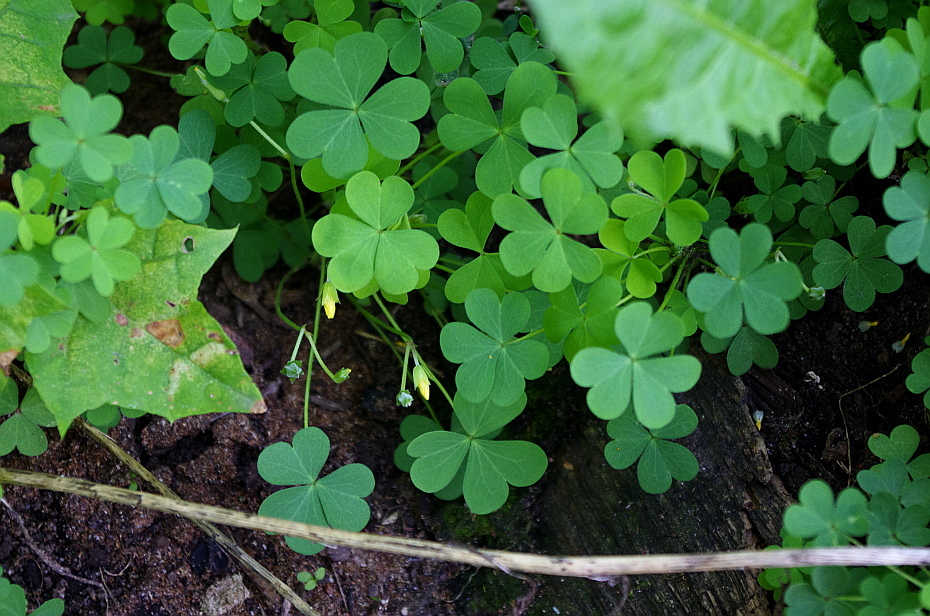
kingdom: Plantae
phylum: Tracheophyta
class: Magnoliopsida
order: Oxalidales
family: Oxalidaceae
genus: Oxalis
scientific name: Oxalis corniculata
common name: Procumbent yellow-sorrel
